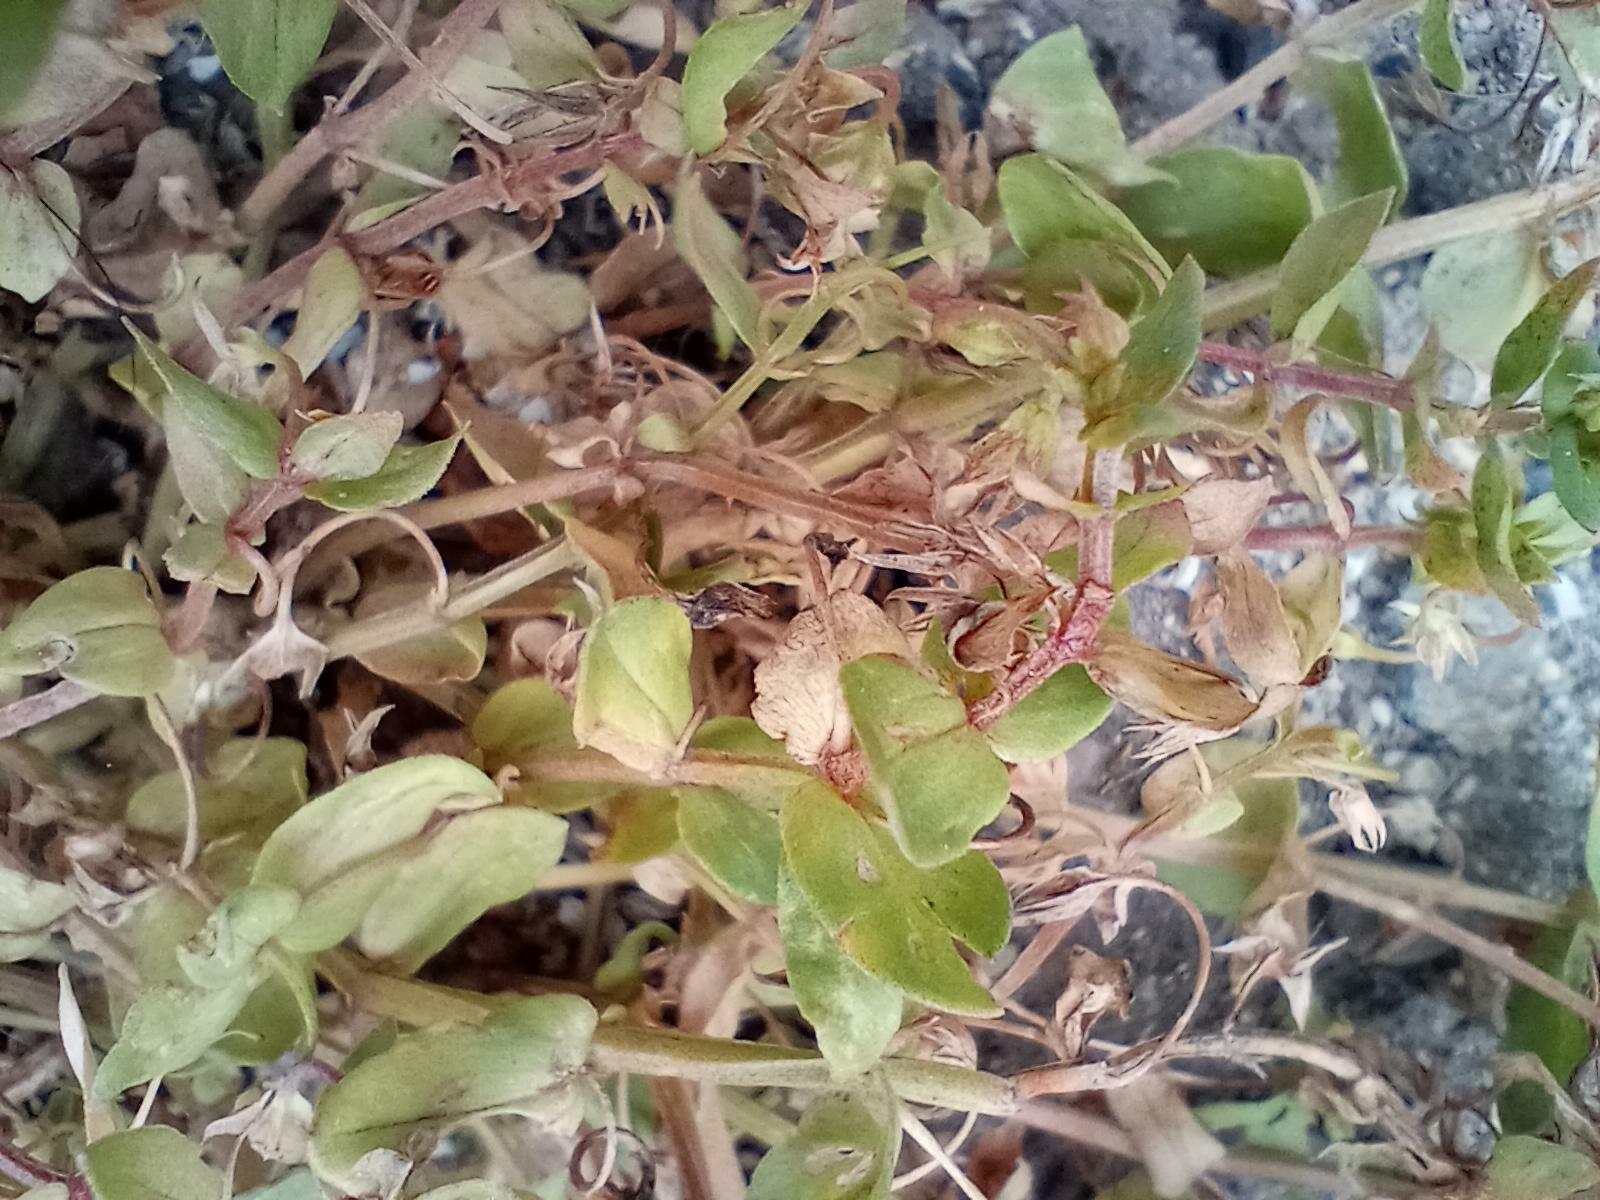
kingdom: Plantae
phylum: Tracheophyta
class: Magnoliopsida
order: Ericales
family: Primulaceae
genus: Lysimachia
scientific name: Lysimachia arvensis
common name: Scarlet pimpernel
